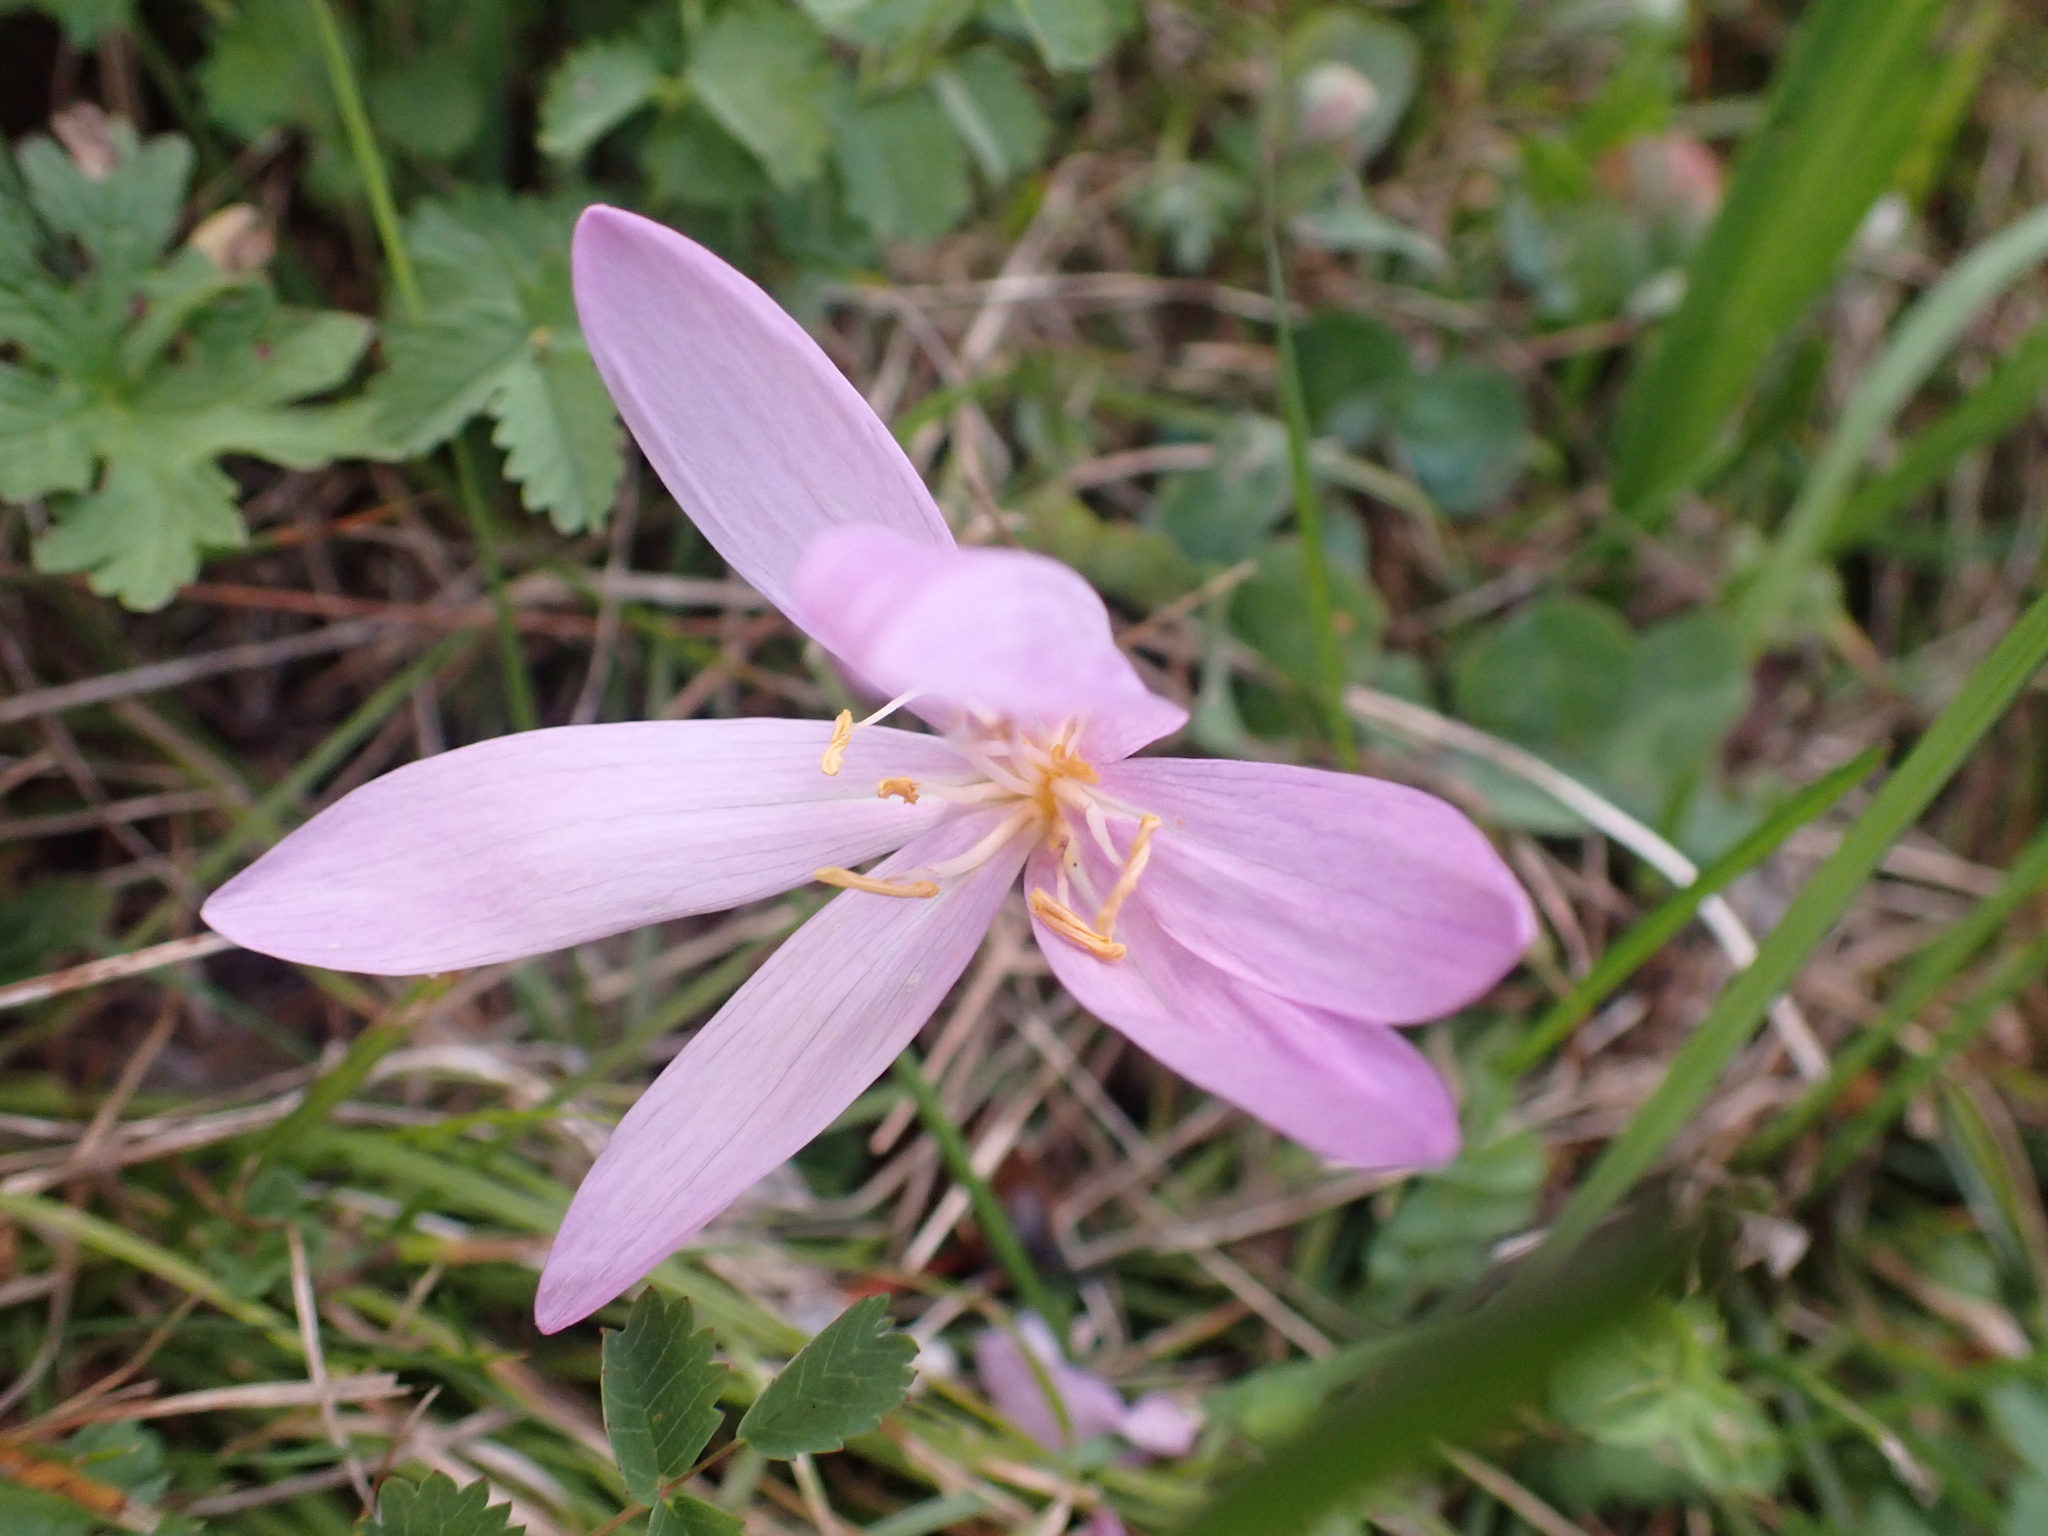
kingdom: Plantae
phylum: Tracheophyta
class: Liliopsida
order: Liliales
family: Colchicaceae
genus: Colchicum
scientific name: Colchicum autumnale
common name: Autumn crocus
